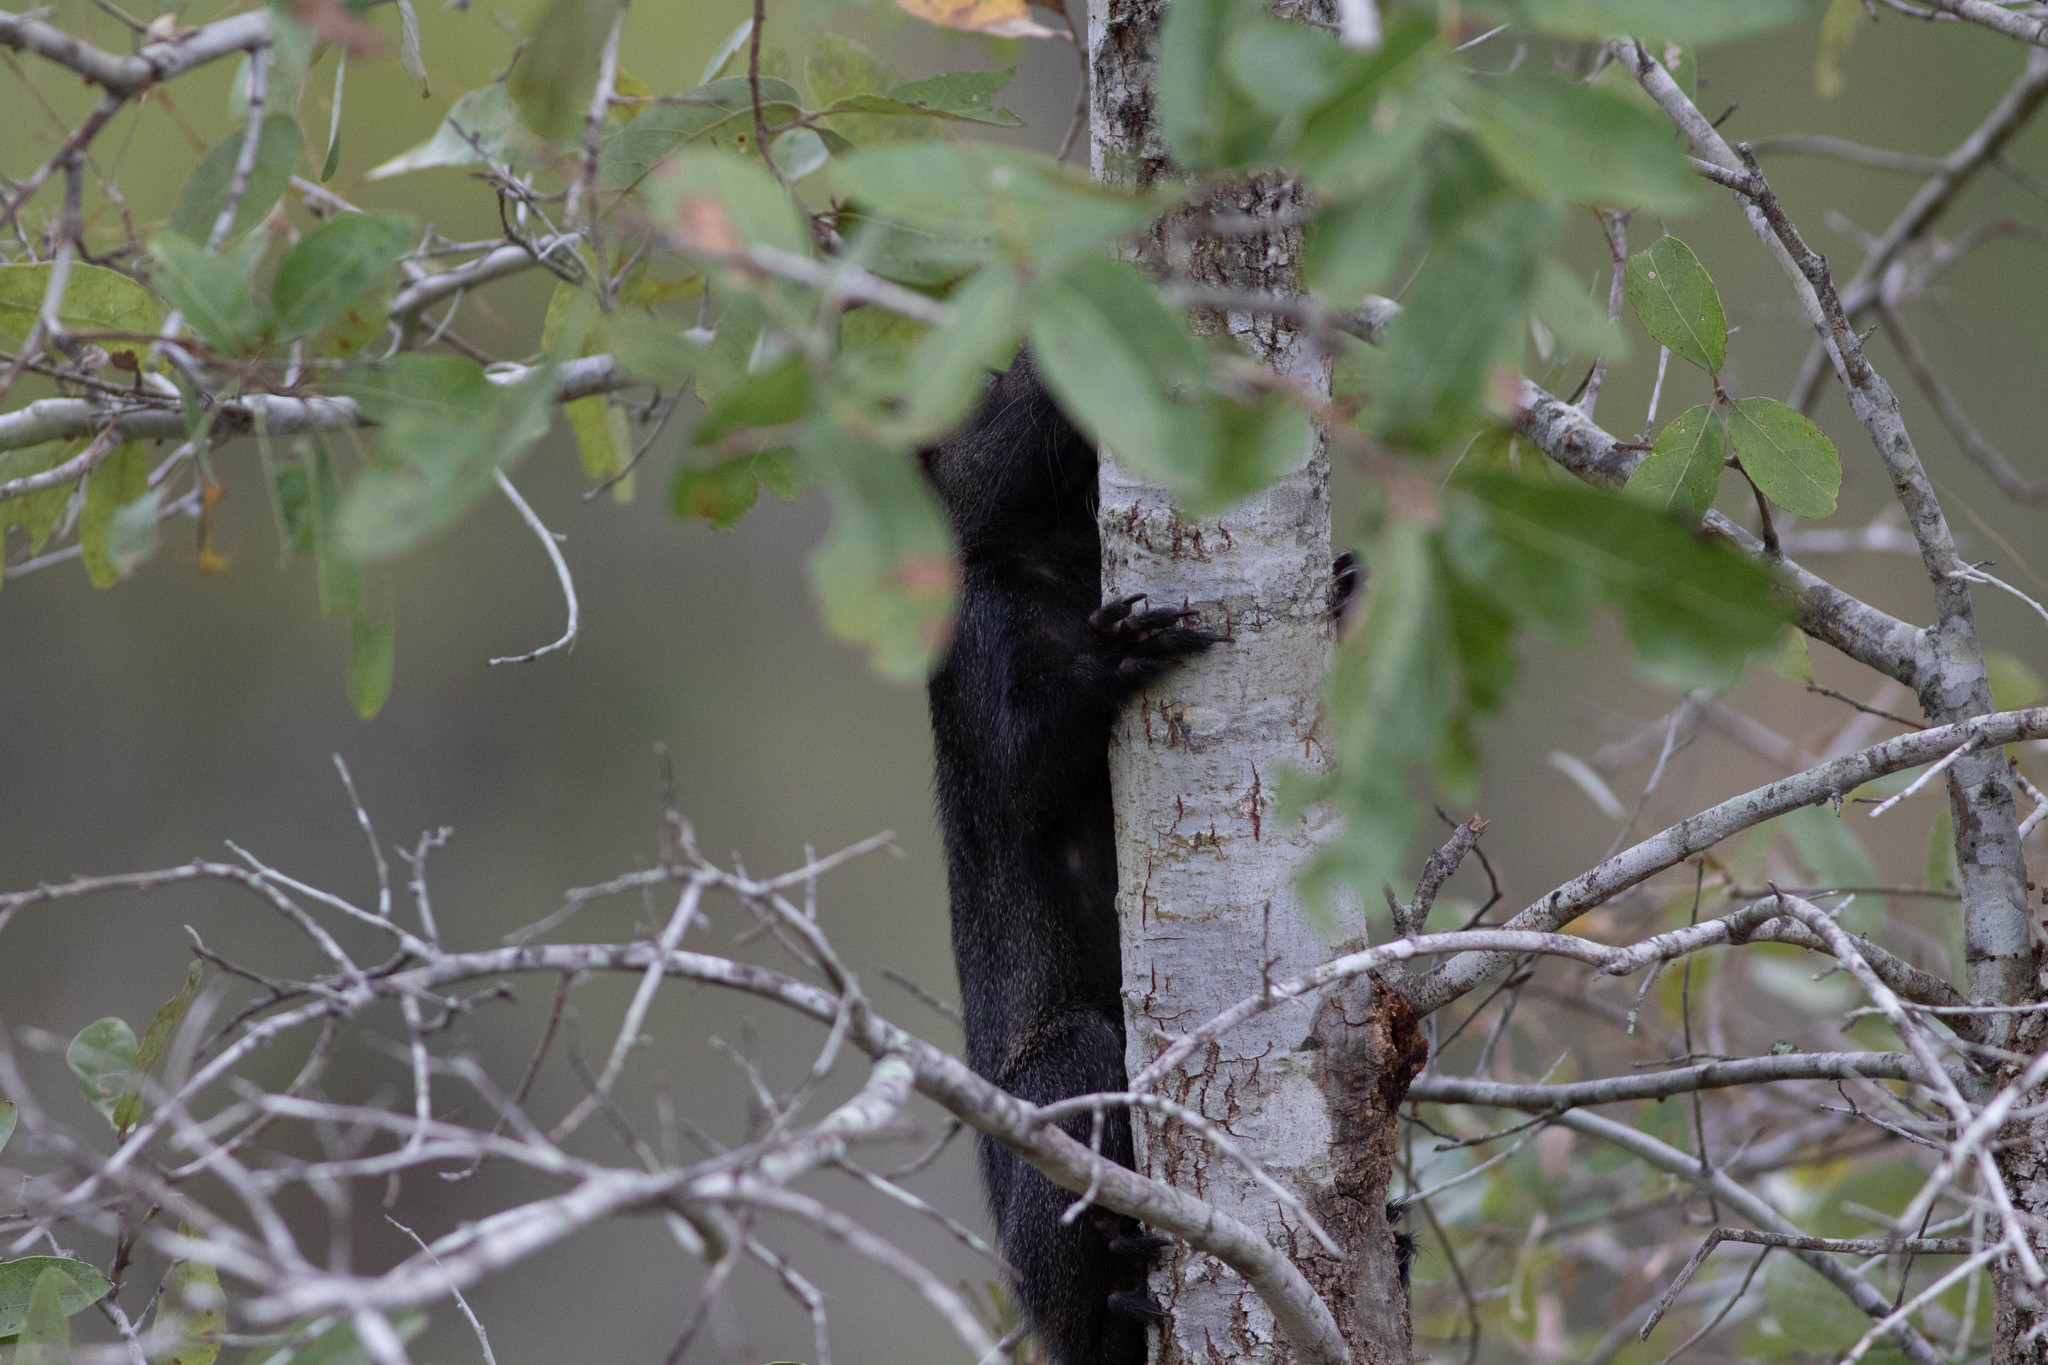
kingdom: Animalia
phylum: Chordata
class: Mammalia
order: Rodentia
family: Sciuridae
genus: Sciurus
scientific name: Sciurus niger
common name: Fox squirrel
